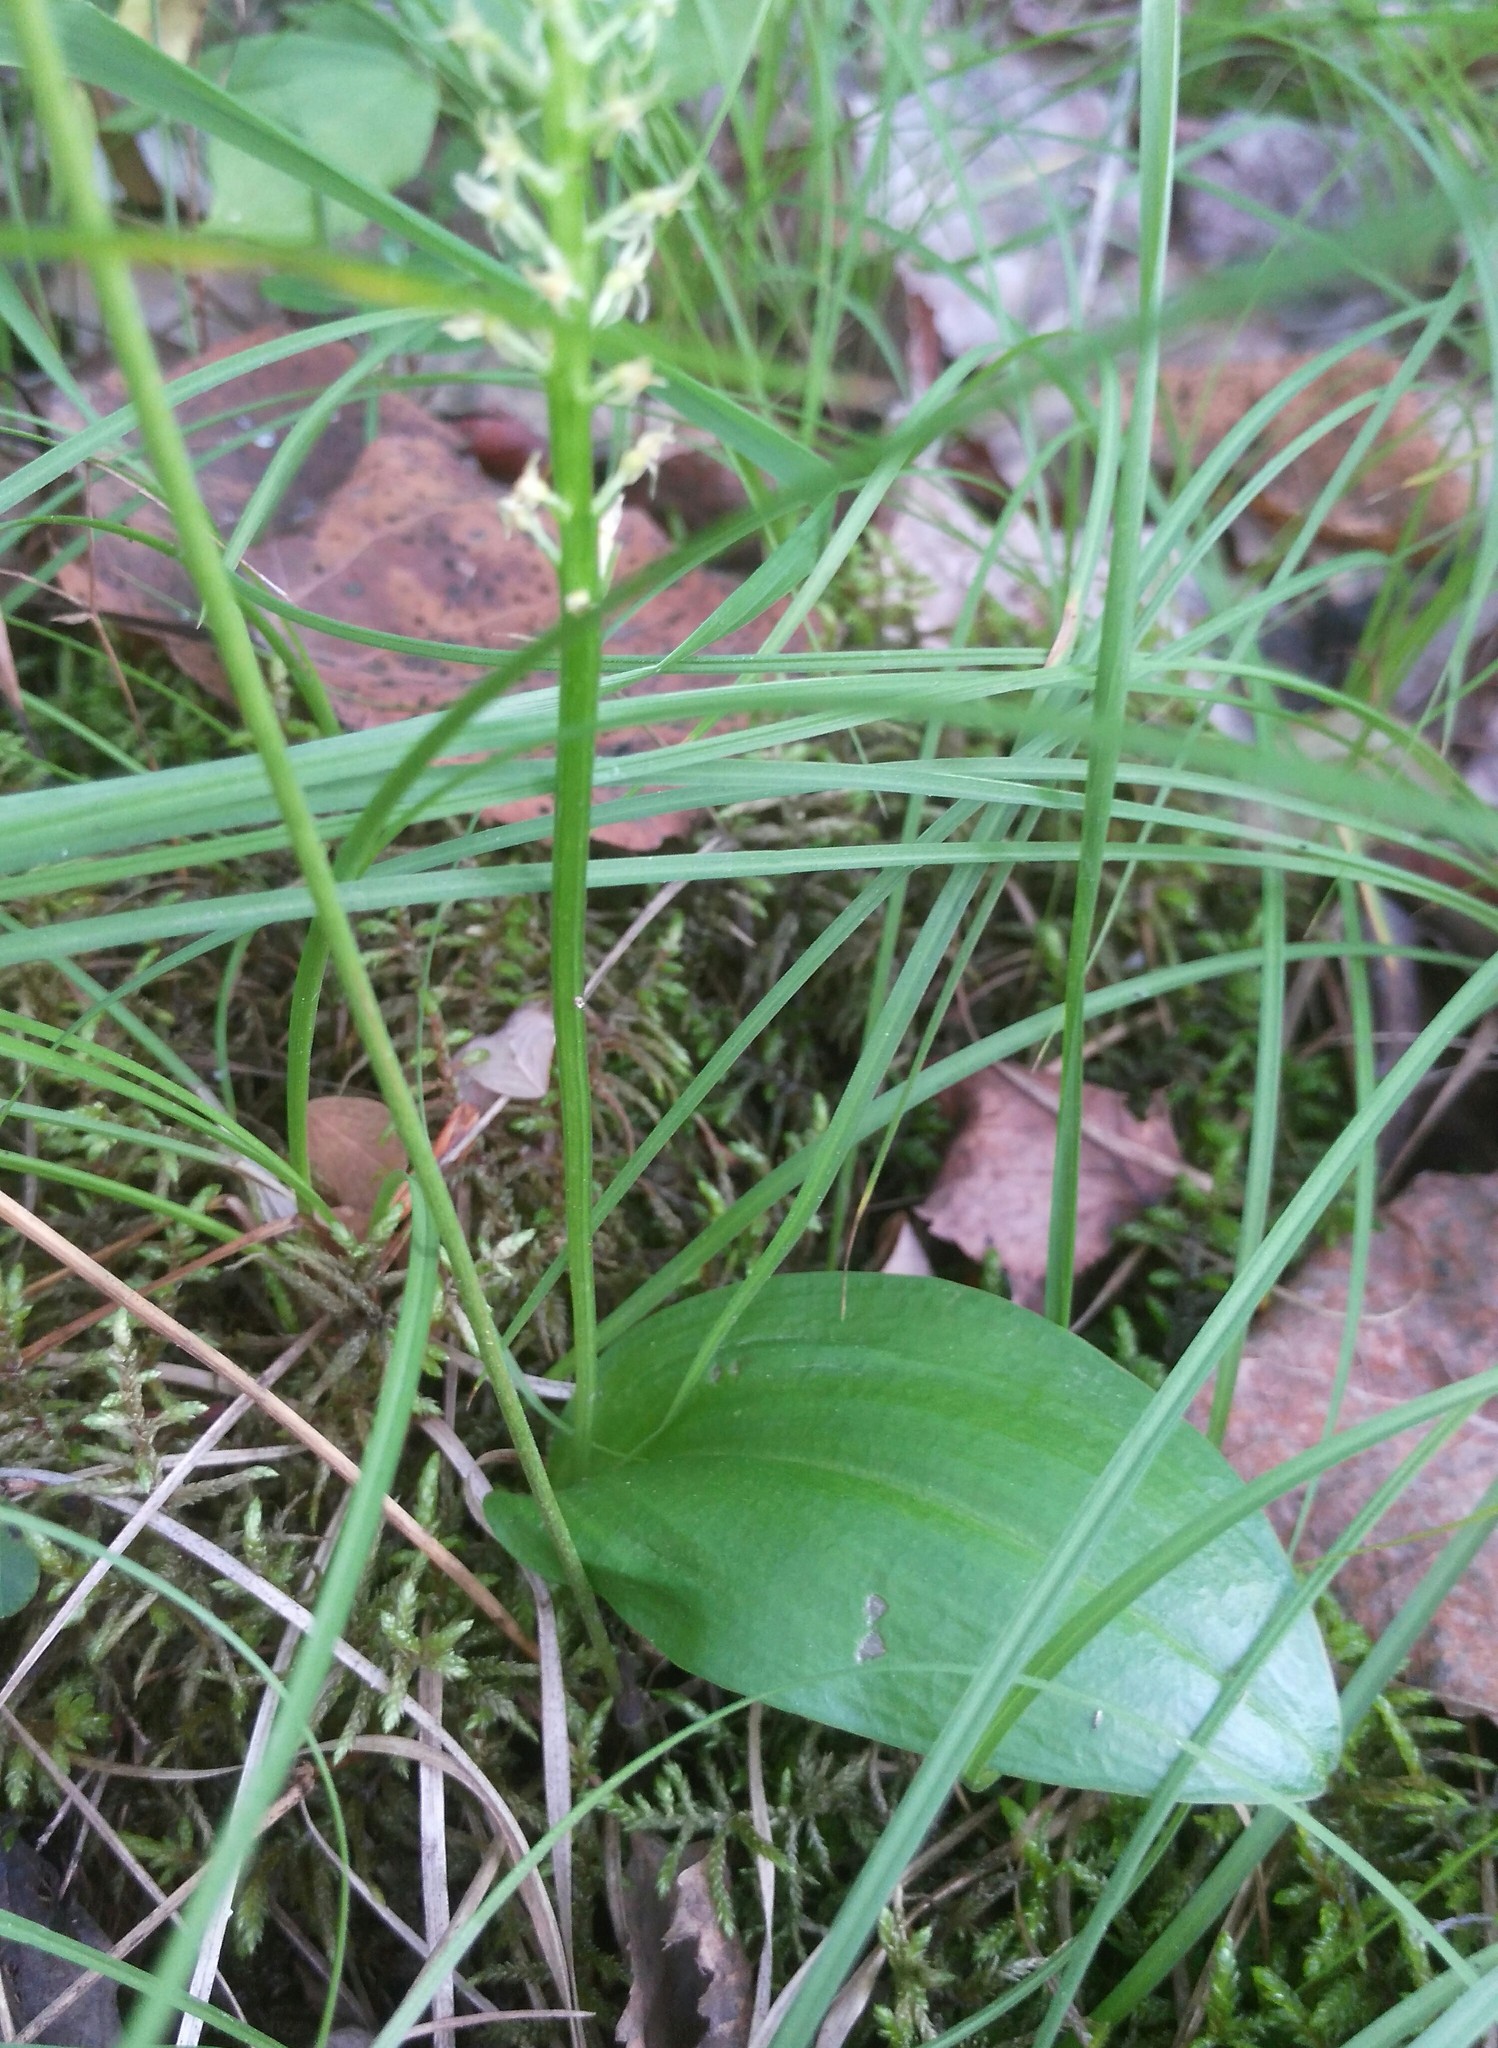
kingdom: Plantae
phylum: Tracheophyta
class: Liliopsida
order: Asparagales
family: Orchidaceae
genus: Malaxis
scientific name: Malaxis monophyllos
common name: White adder's-mouth
